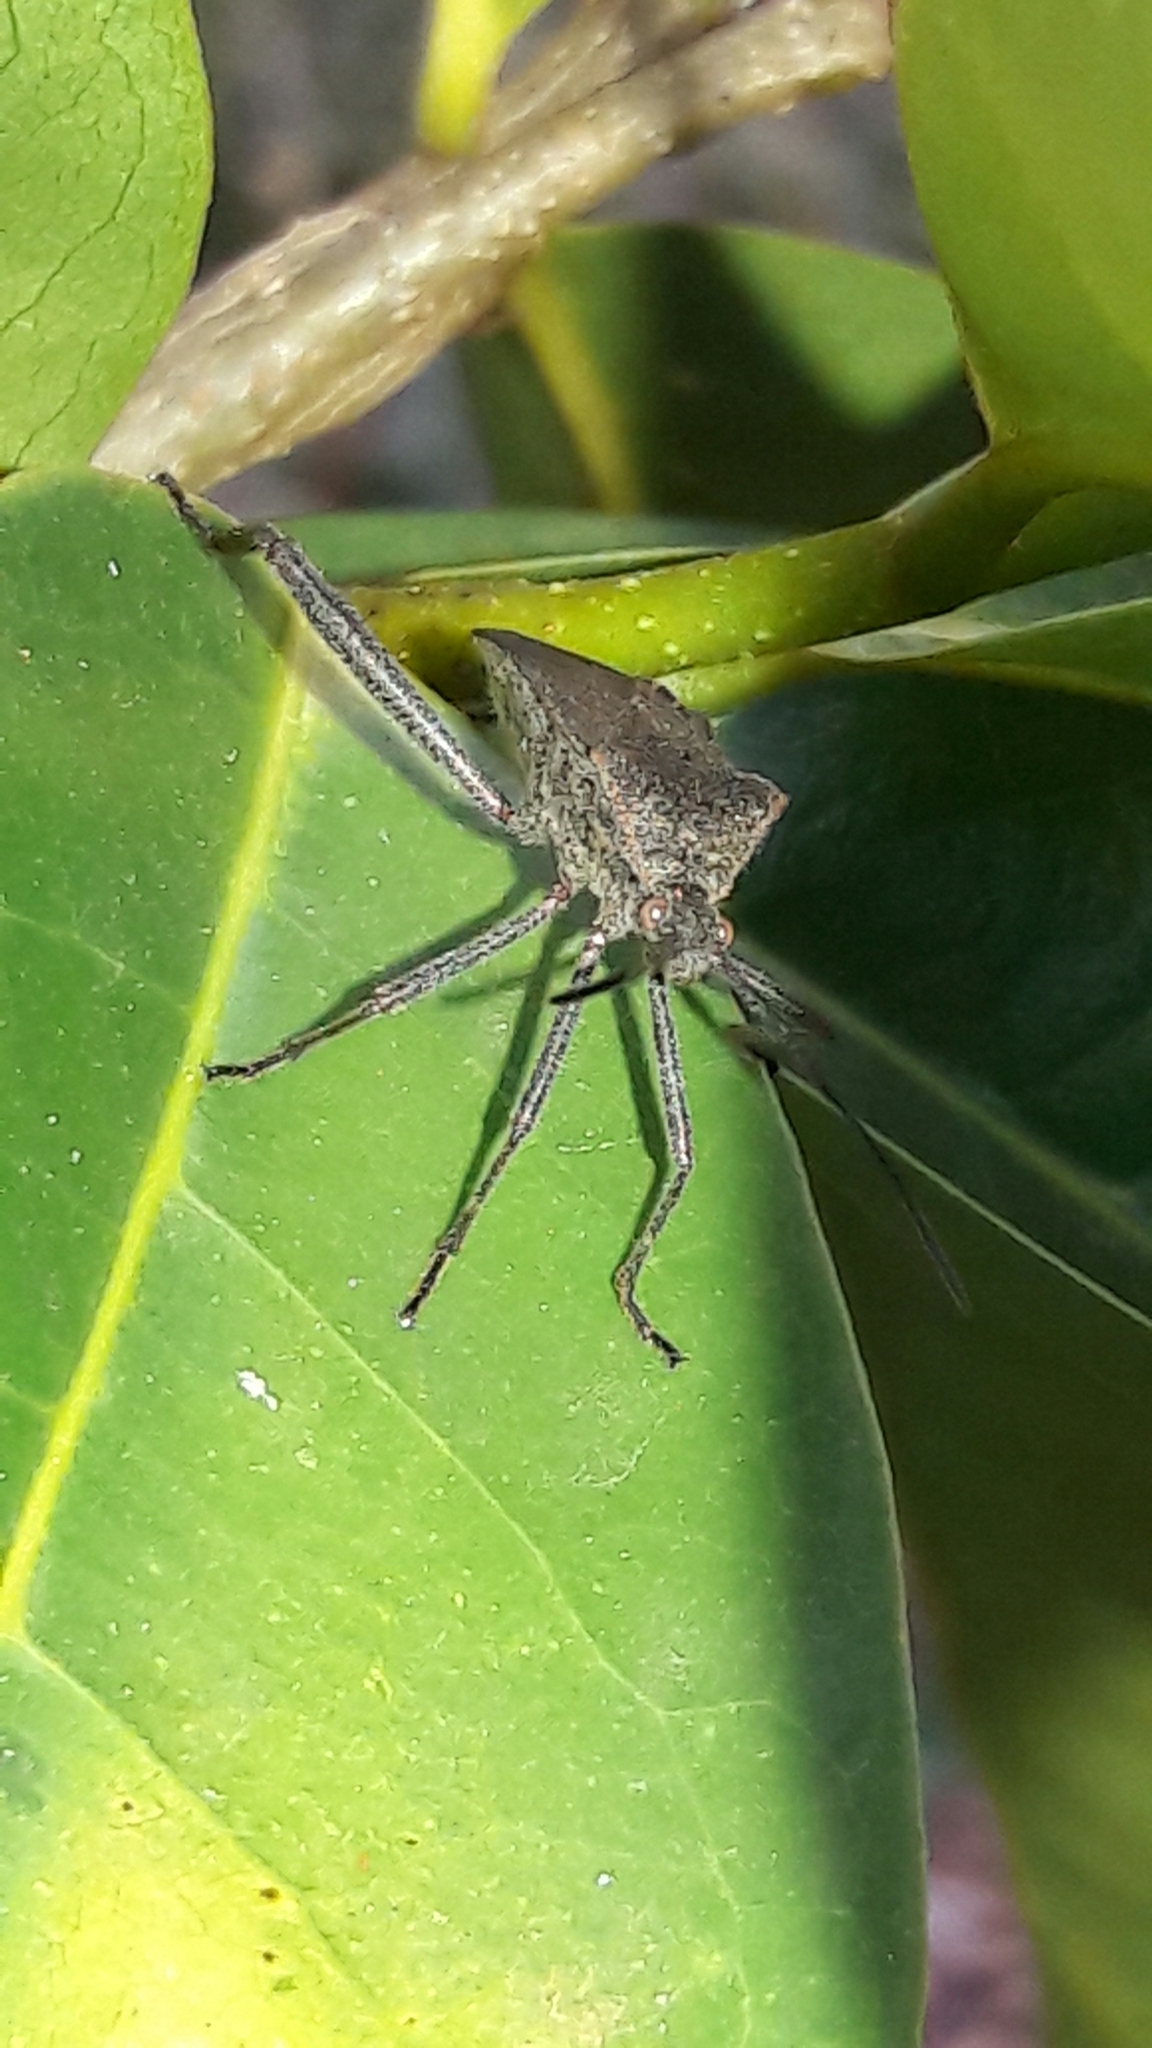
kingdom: Animalia
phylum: Arthropoda
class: Insecta
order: Hemiptera
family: Coreidae
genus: Phthiacnemia
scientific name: Phthiacnemia picta
